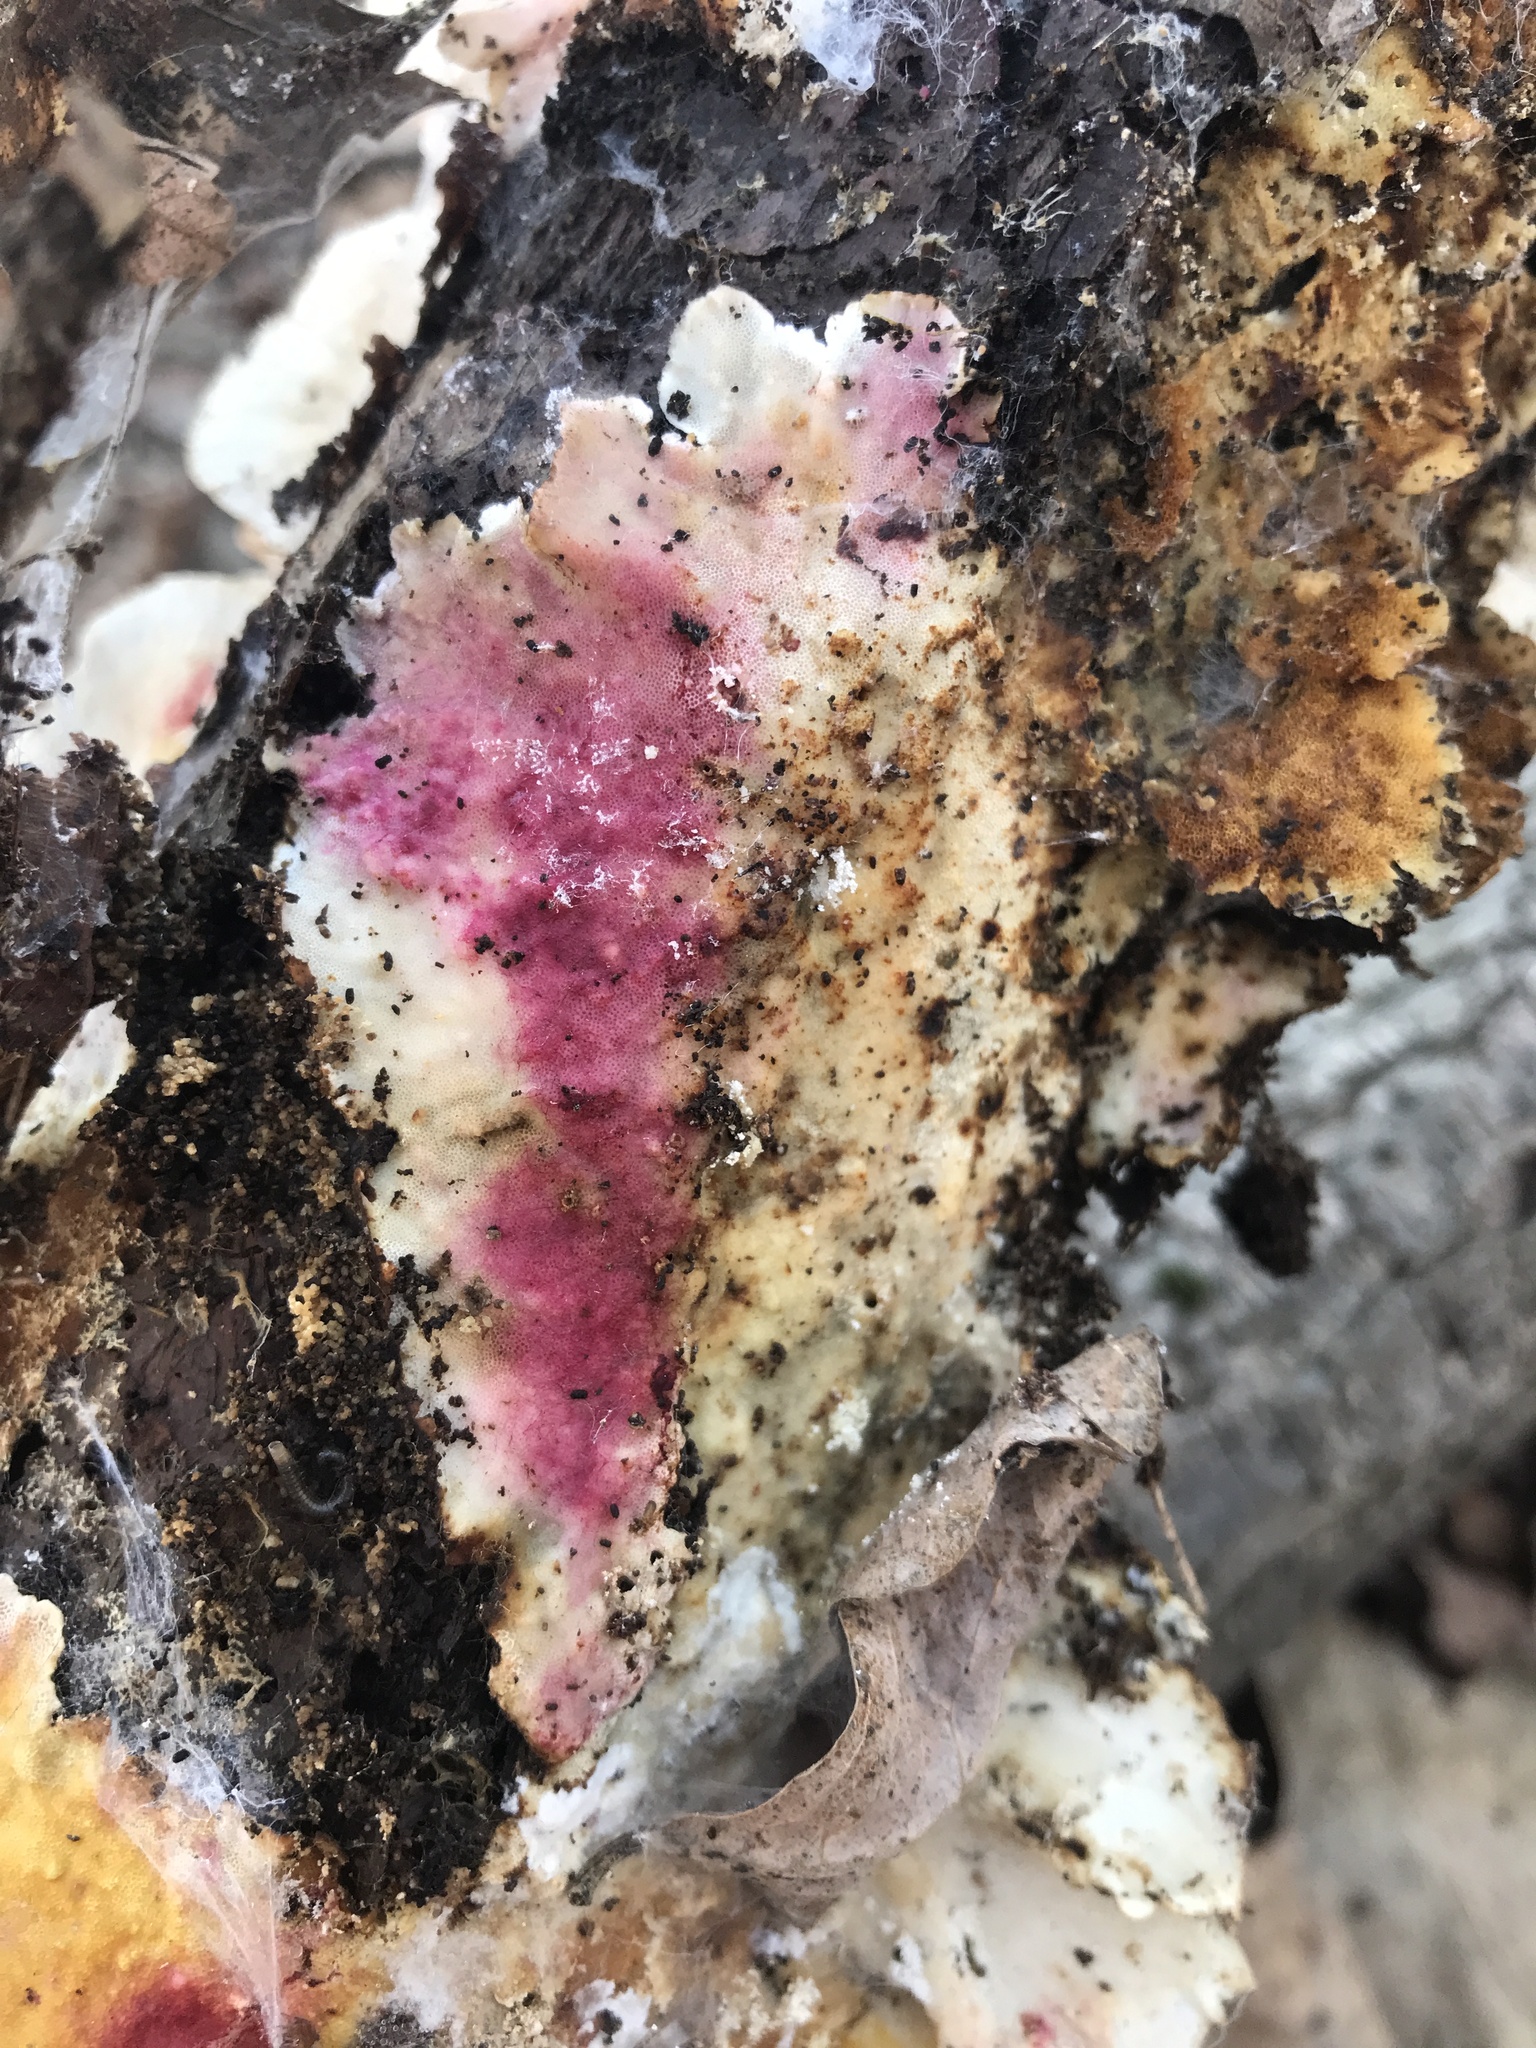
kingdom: Fungi
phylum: Ascomycota
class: Sordariomycetes
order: Hypocreales
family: Hypocreaceae
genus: Hypomyces
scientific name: Hypomyces rosellus
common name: Pink polypore mould
